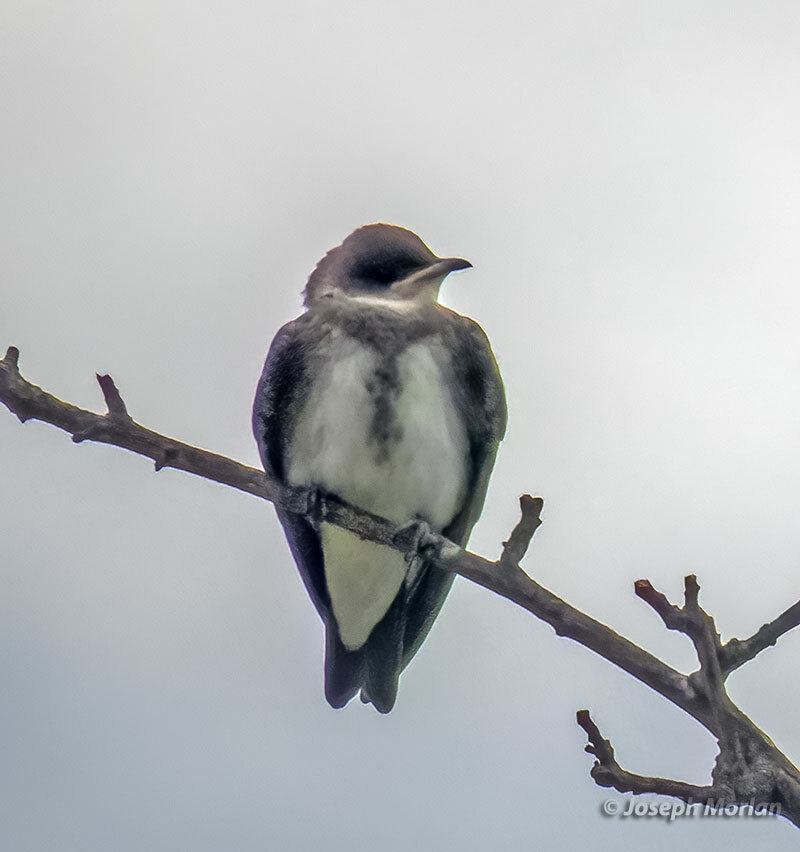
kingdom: Animalia
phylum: Chordata
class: Aves
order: Passeriformes
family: Hirundinidae
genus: Progne
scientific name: Progne tapera
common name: Brown-chested martin
